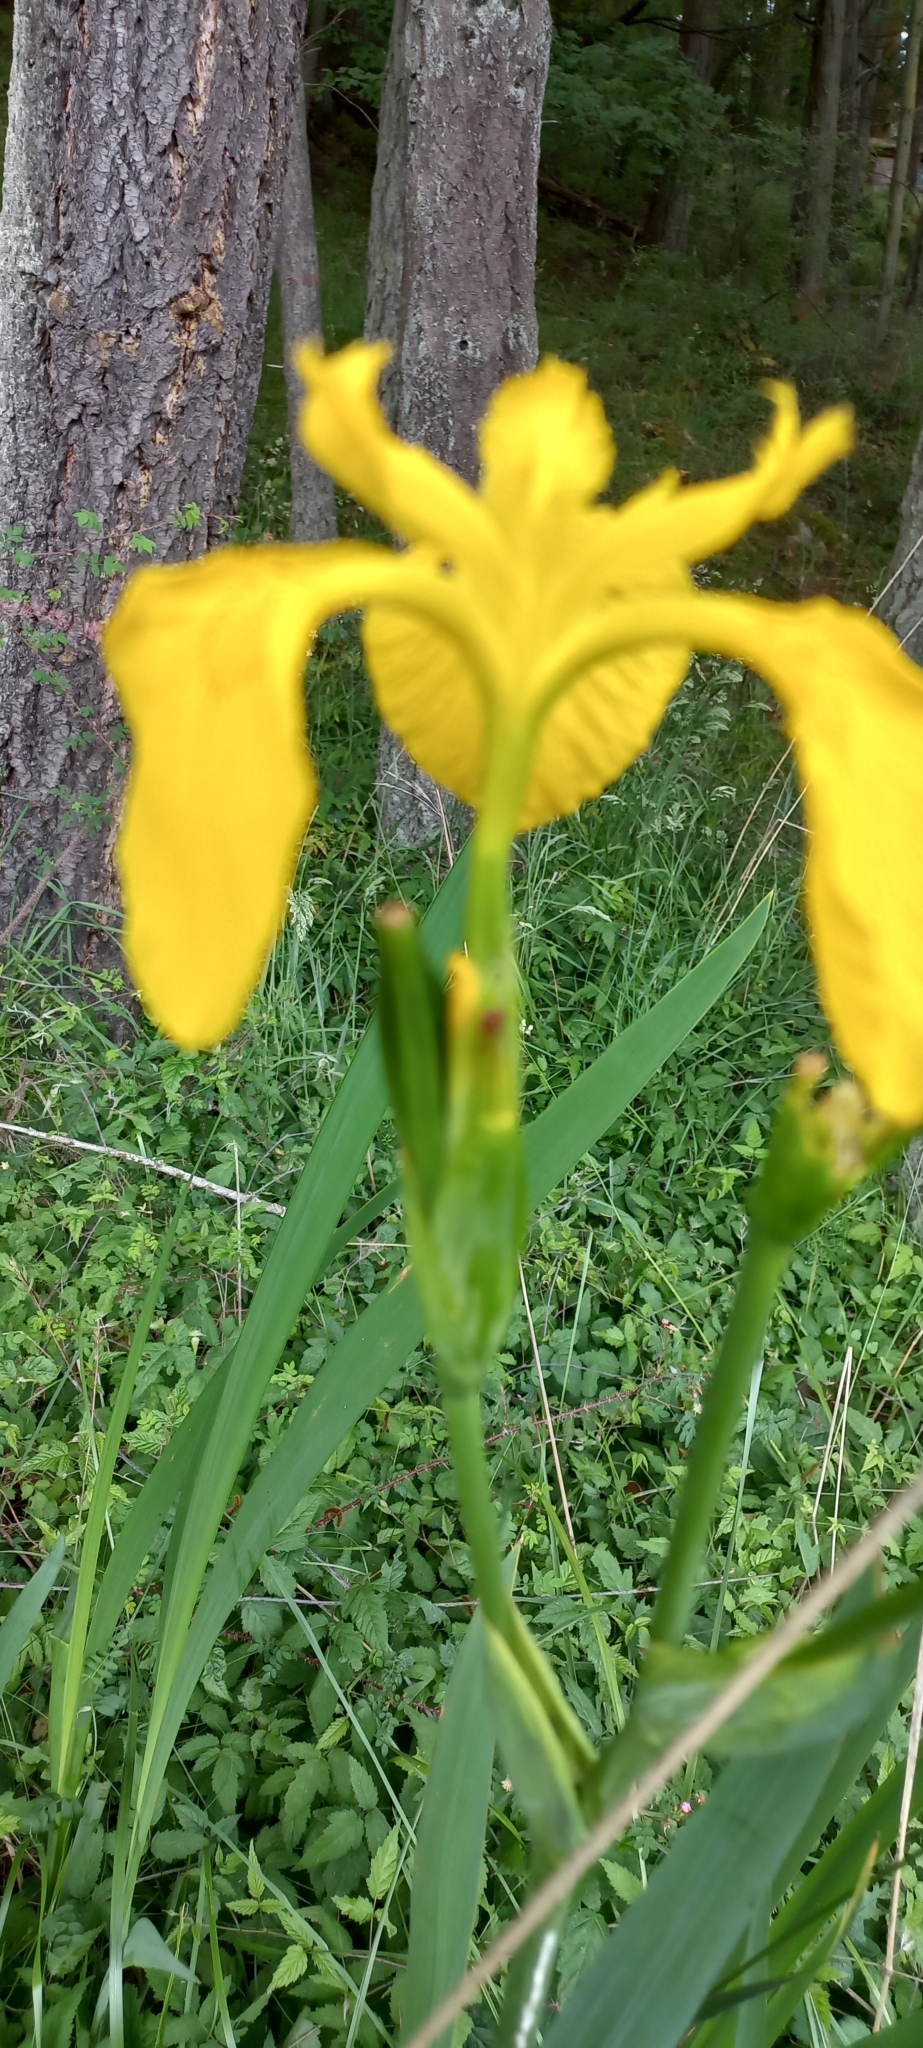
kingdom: Plantae
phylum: Tracheophyta
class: Liliopsida
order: Asparagales
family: Iridaceae
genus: Iris
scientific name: Iris pseudacorus
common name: Yellow flag
